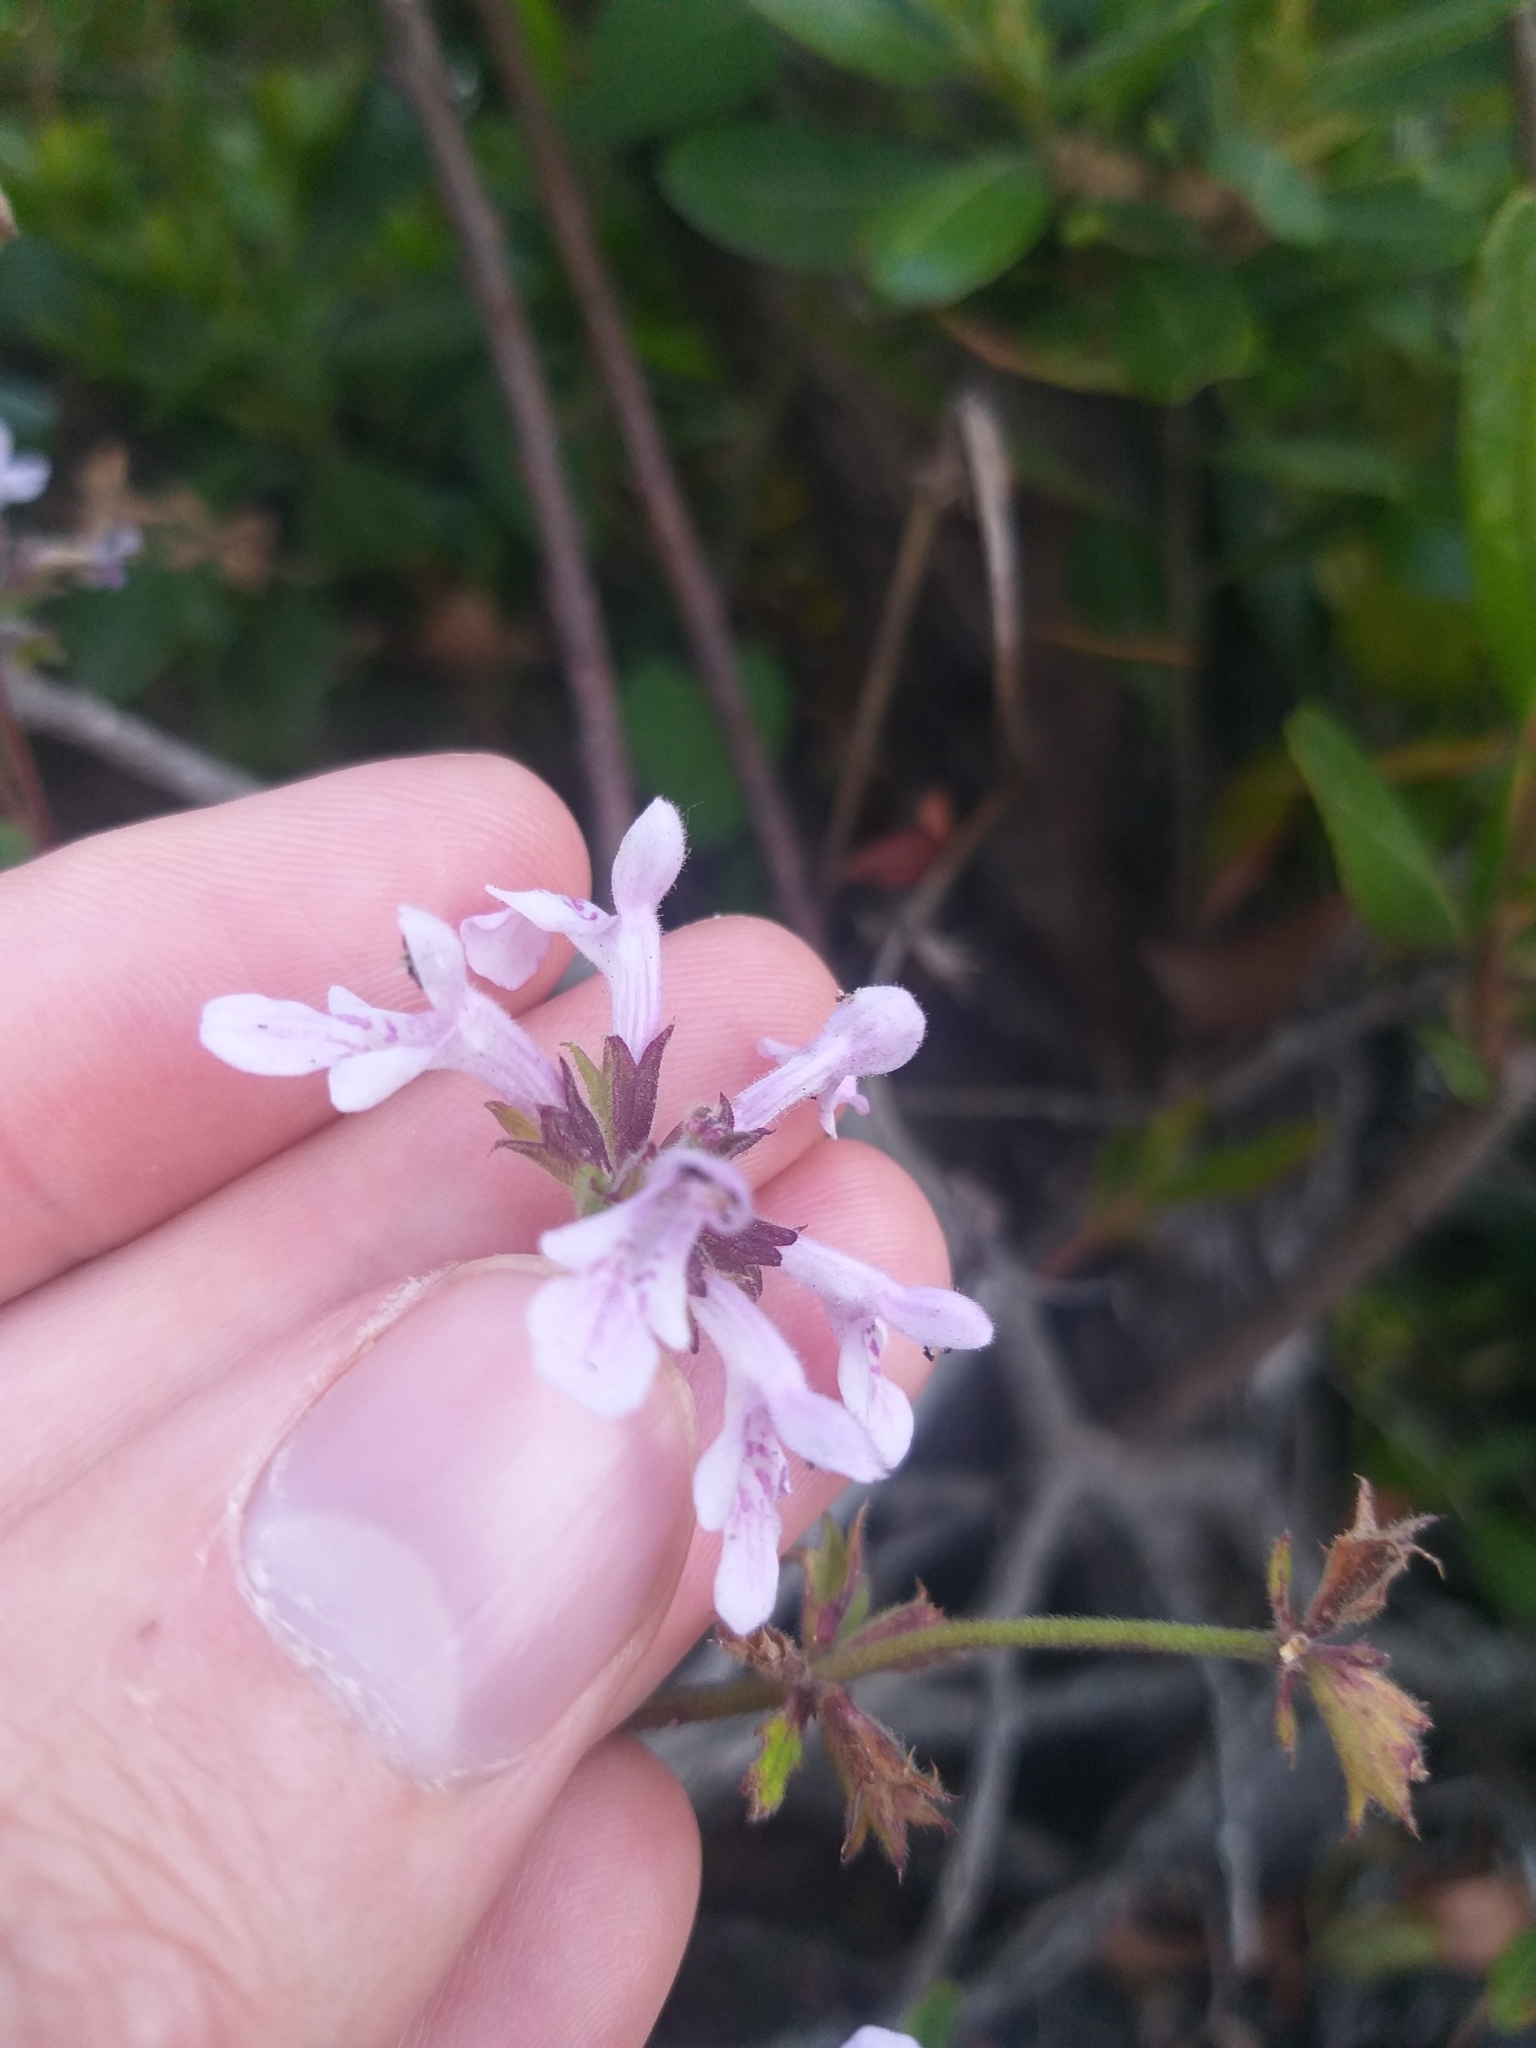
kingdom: Plantae
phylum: Tracheophyta
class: Magnoliopsida
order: Lamiales
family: Lamiaceae
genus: Stachys
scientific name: Stachys reticulata
